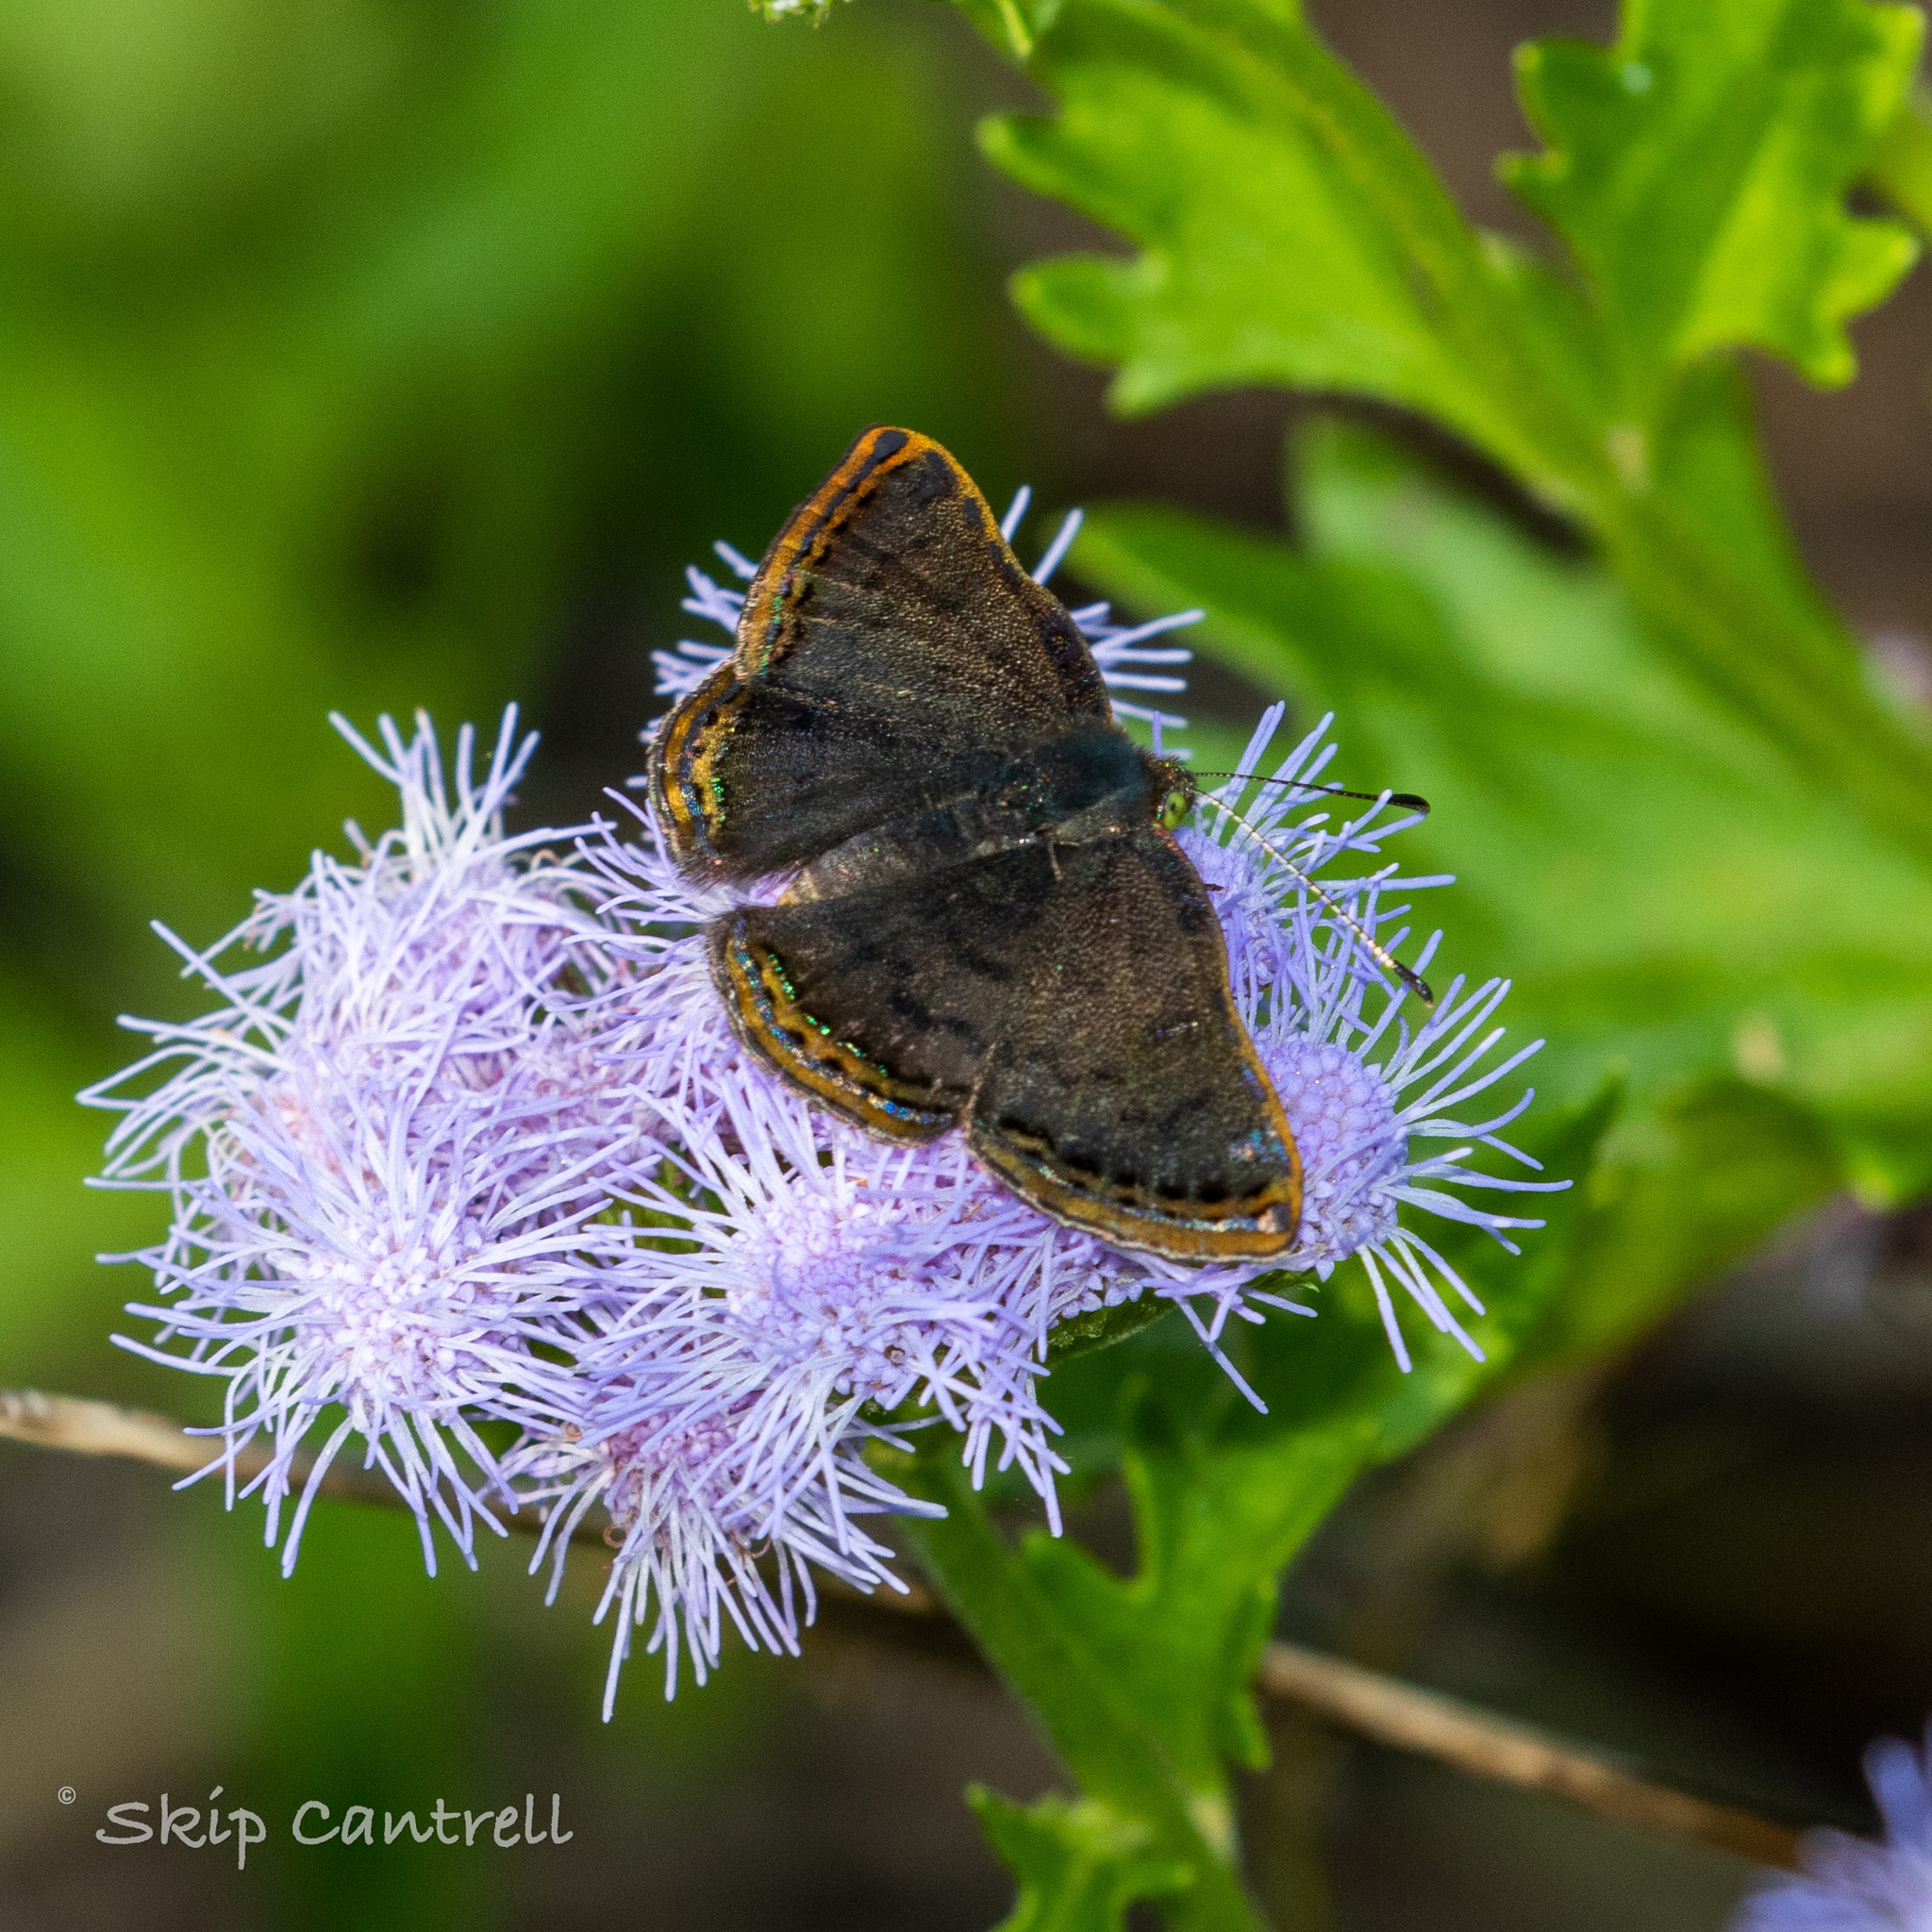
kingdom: Animalia
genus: Caria
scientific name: Caria ino
